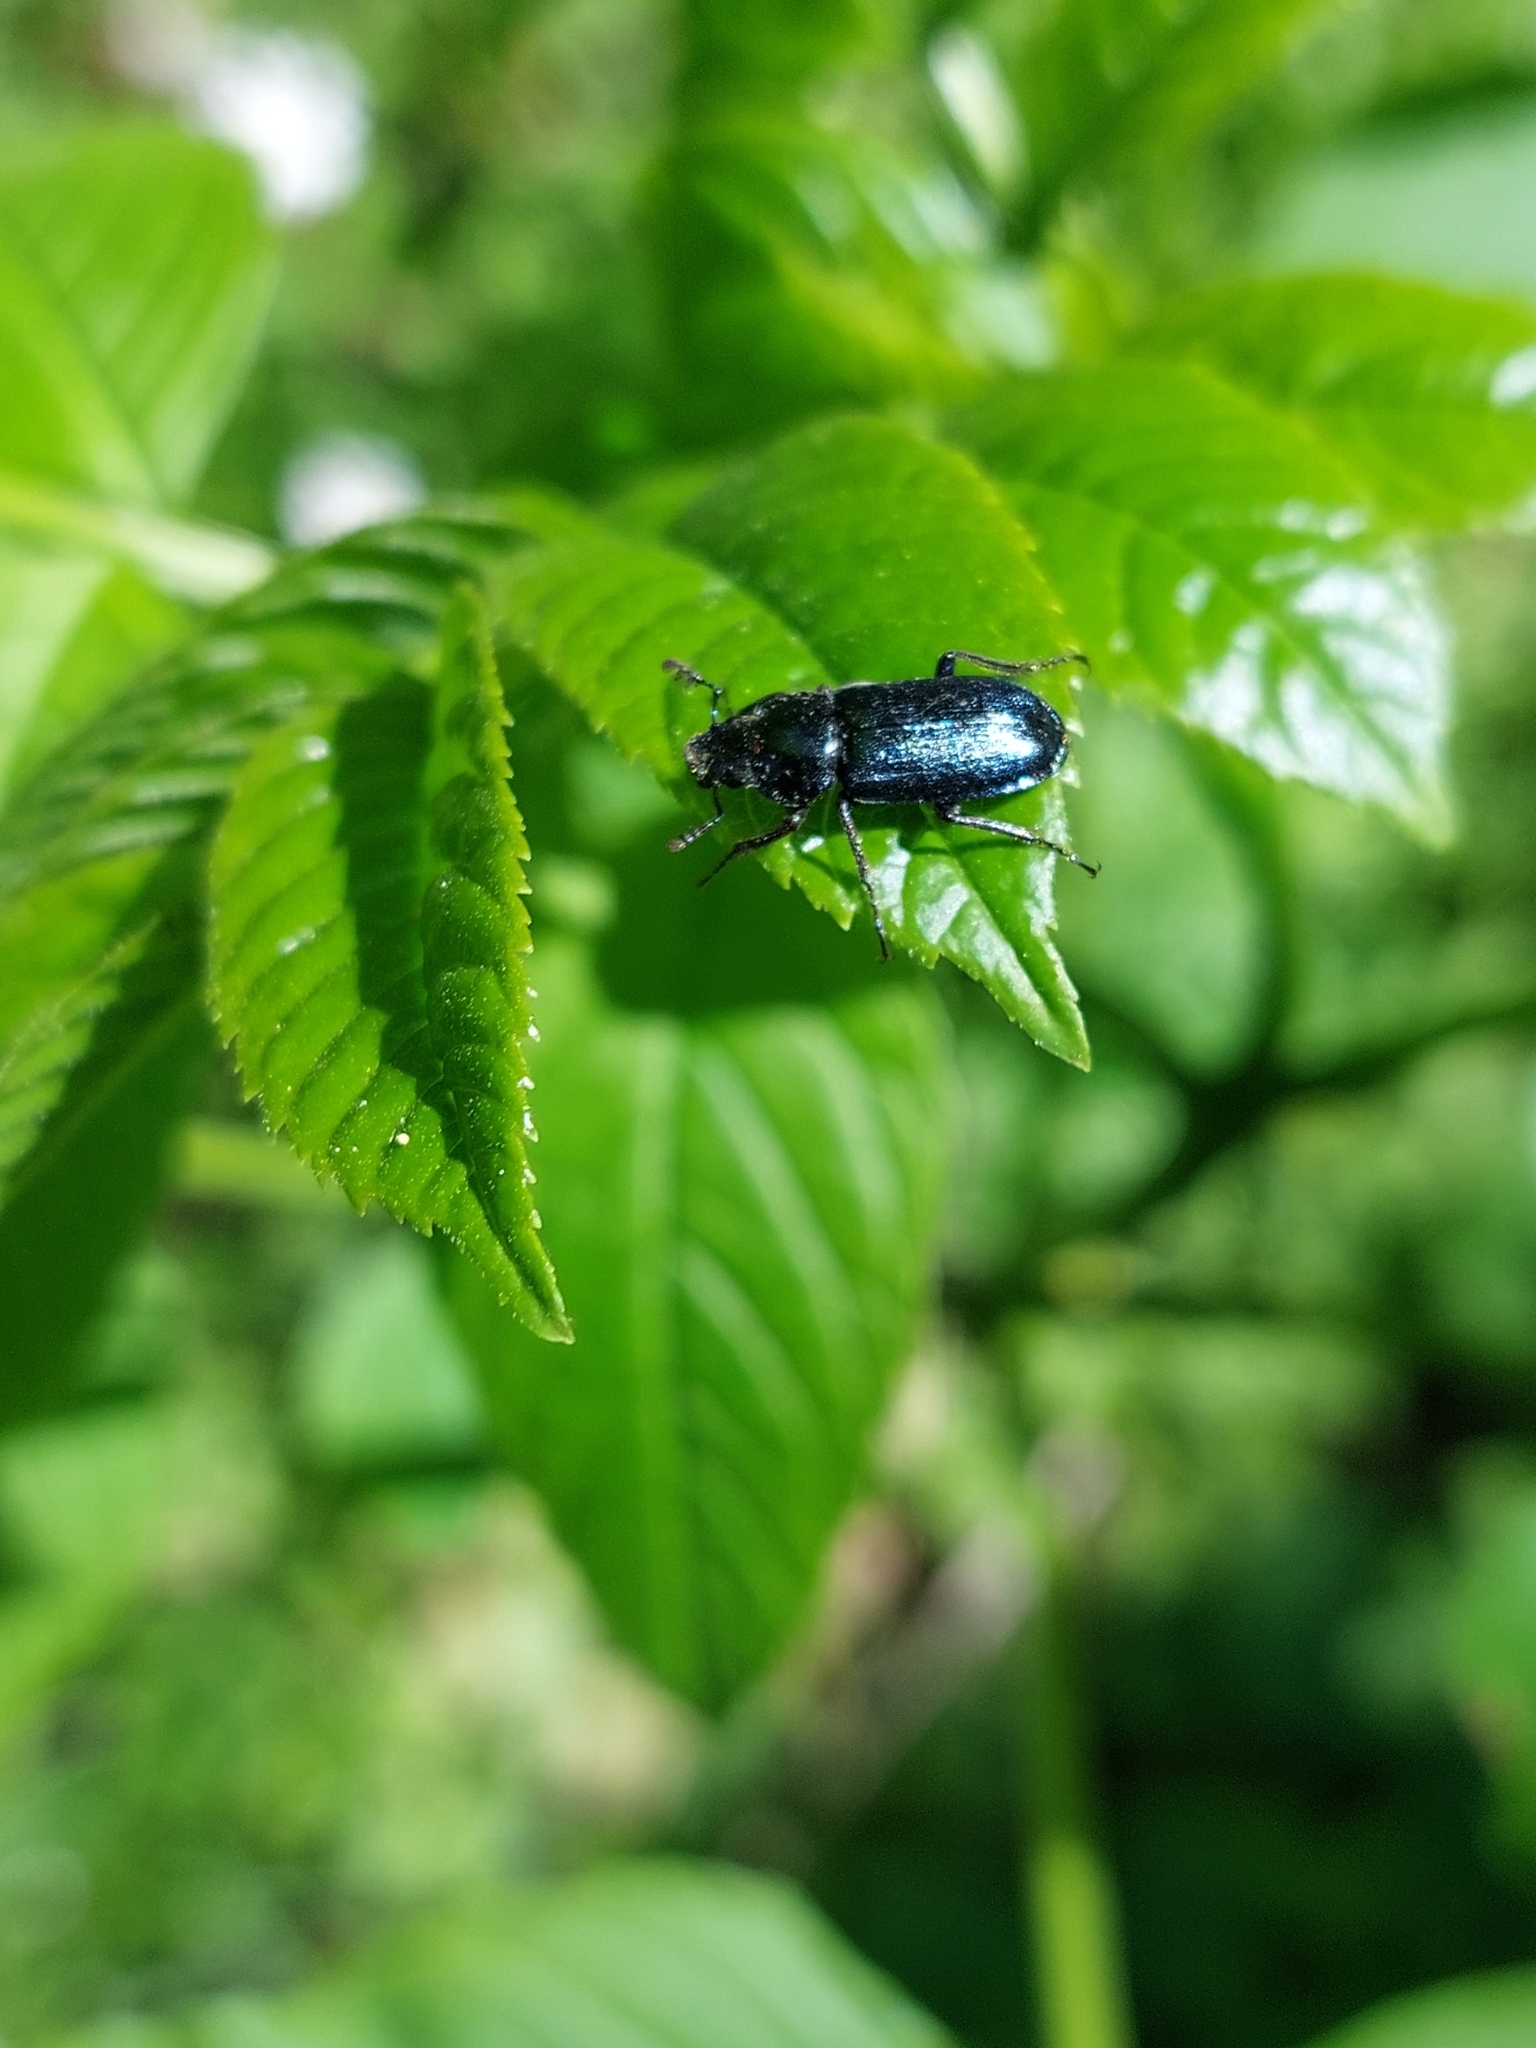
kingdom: Animalia
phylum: Arthropoda
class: Insecta
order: Coleoptera
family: Lucanidae
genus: Platycerus
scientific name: Platycerus caraboides
